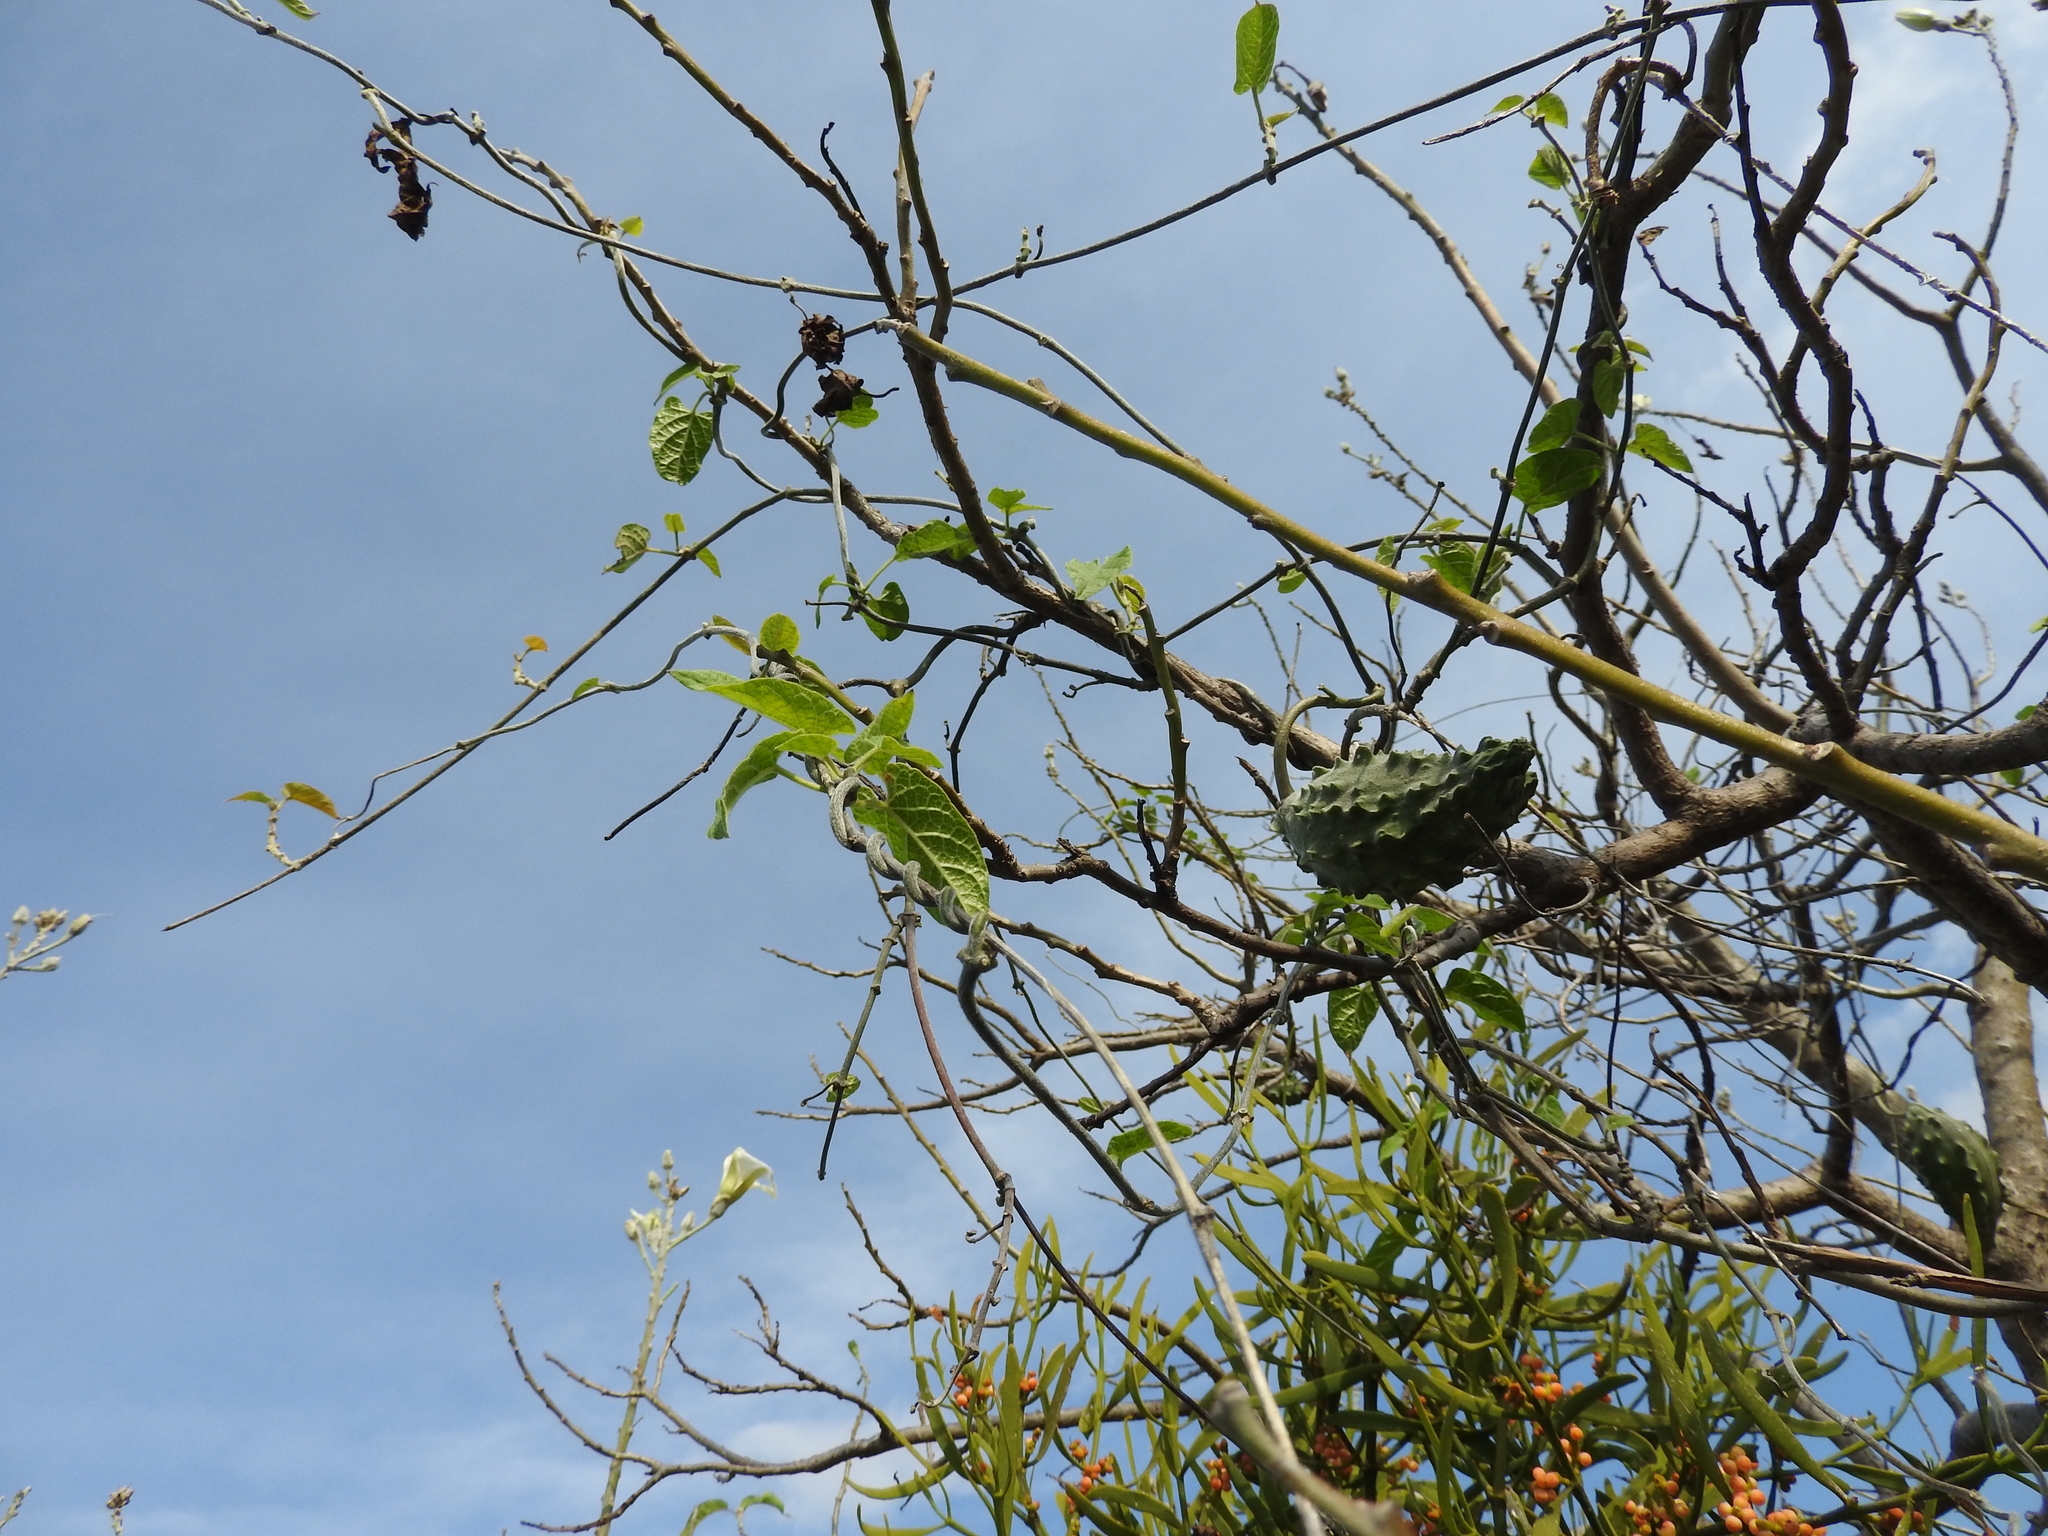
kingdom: Plantae
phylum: Tracheophyta
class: Magnoliopsida
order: Gentianales
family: Apocynaceae
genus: Gonolobus
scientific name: Gonolobus grandiflorus
